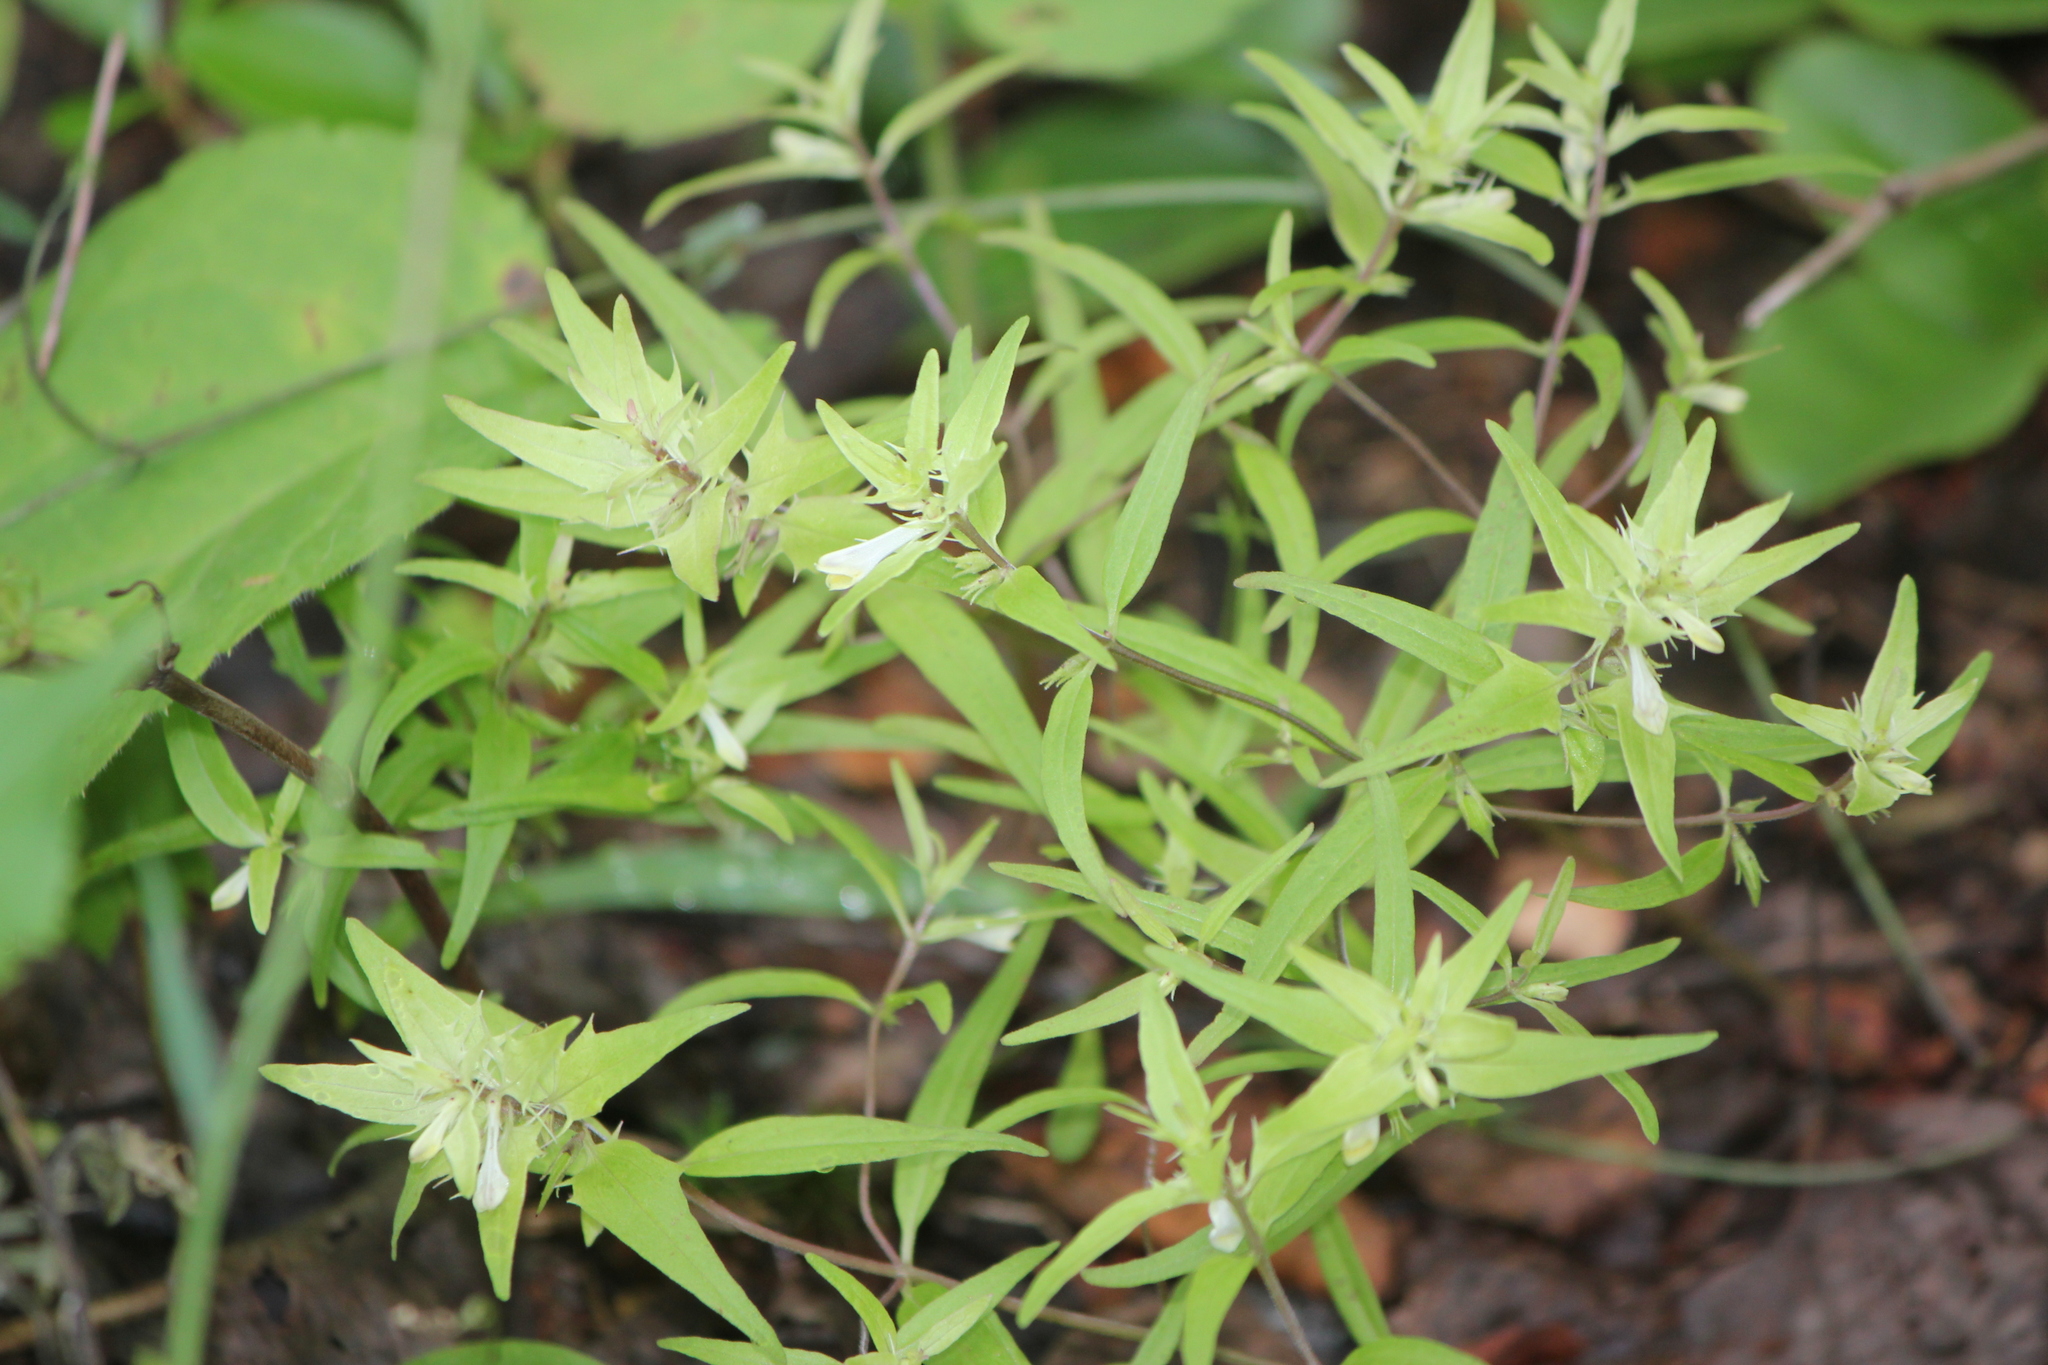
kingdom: Plantae
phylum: Tracheophyta
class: Magnoliopsida
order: Lamiales
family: Orobanchaceae
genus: Melampyrum
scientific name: Melampyrum lineare
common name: American cow-wheat
